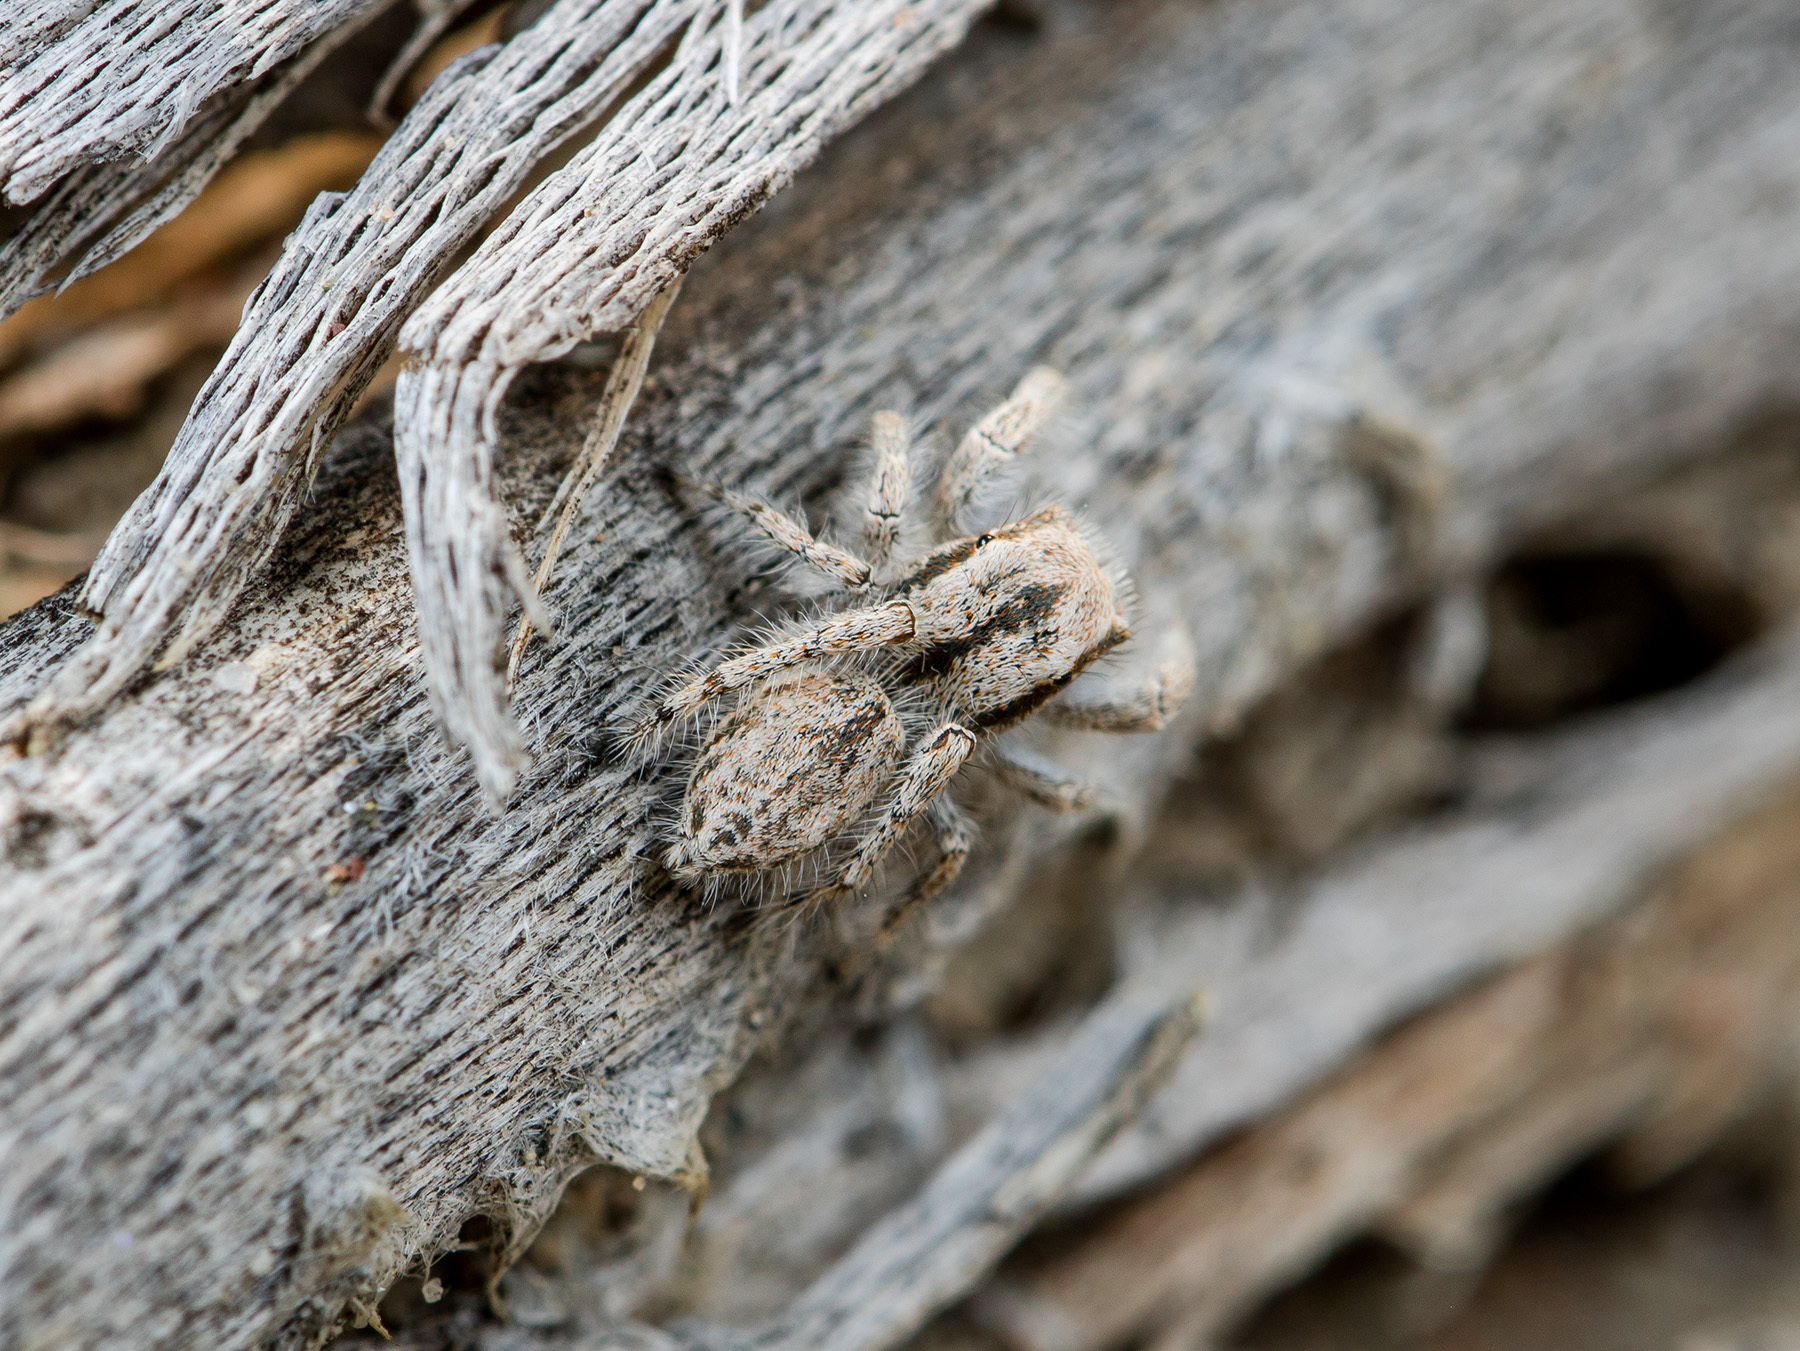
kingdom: Animalia
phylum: Arthropoda
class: Arachnida
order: Araneae
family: Salticidae
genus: Marusyllus
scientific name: Marusyllus aralicus
